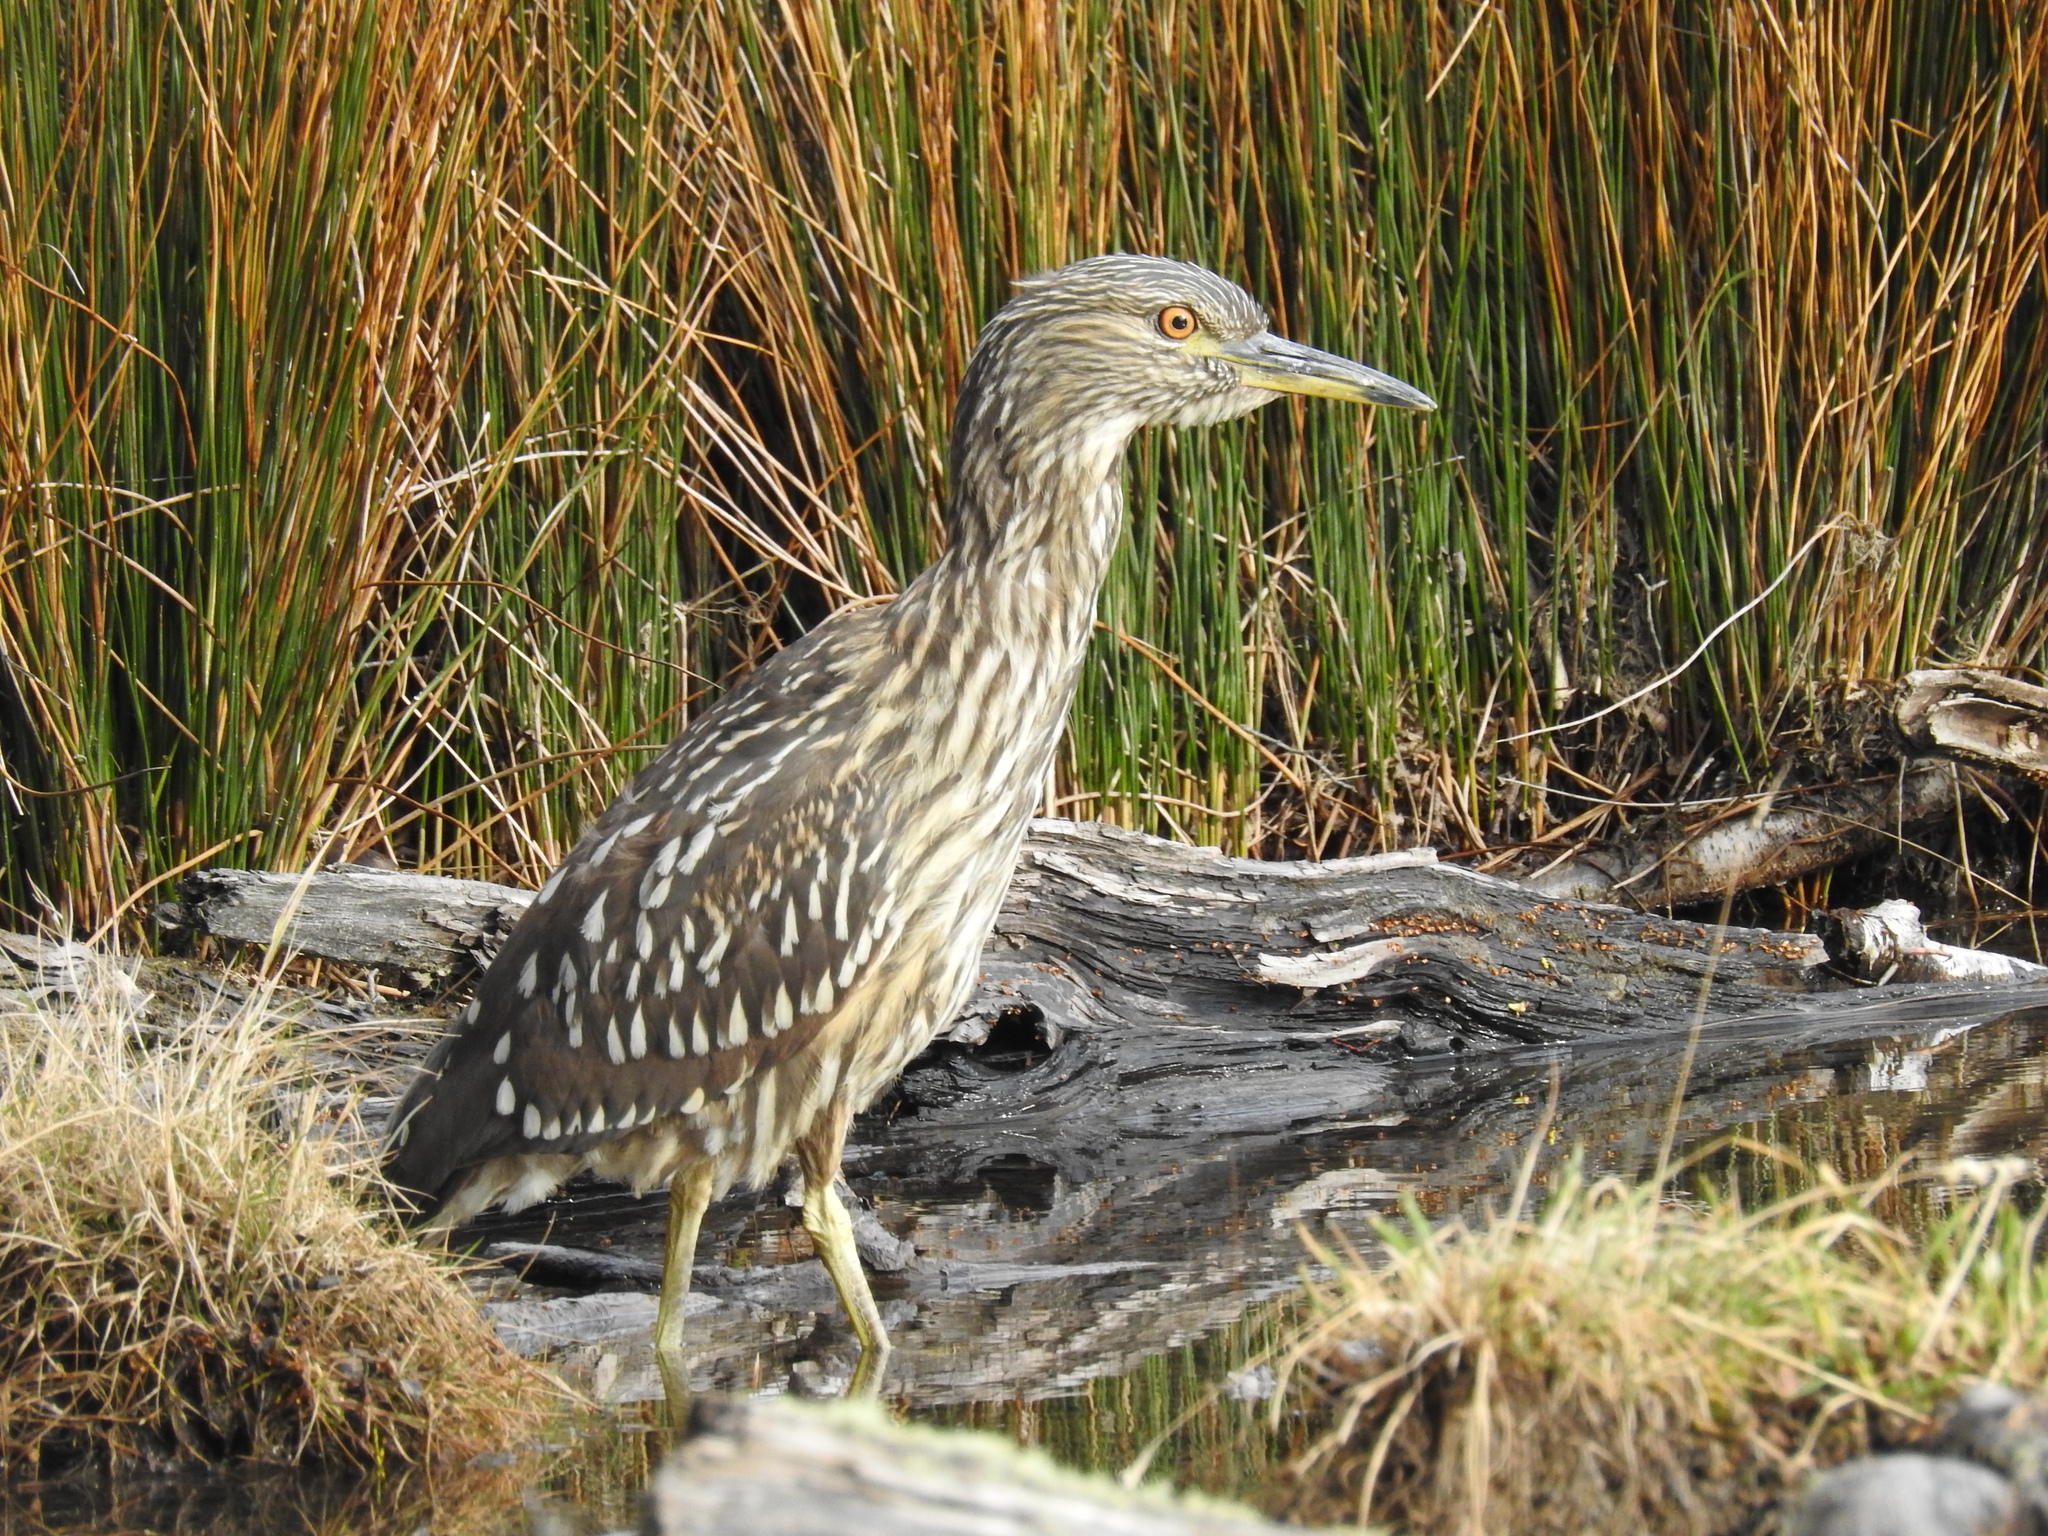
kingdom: Animalia
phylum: Chordata
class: Aves
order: Pelecaniformes
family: Ardeidae
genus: Nycticorax
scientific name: Nycticorax nycticorax
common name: Black-crowned night heron
